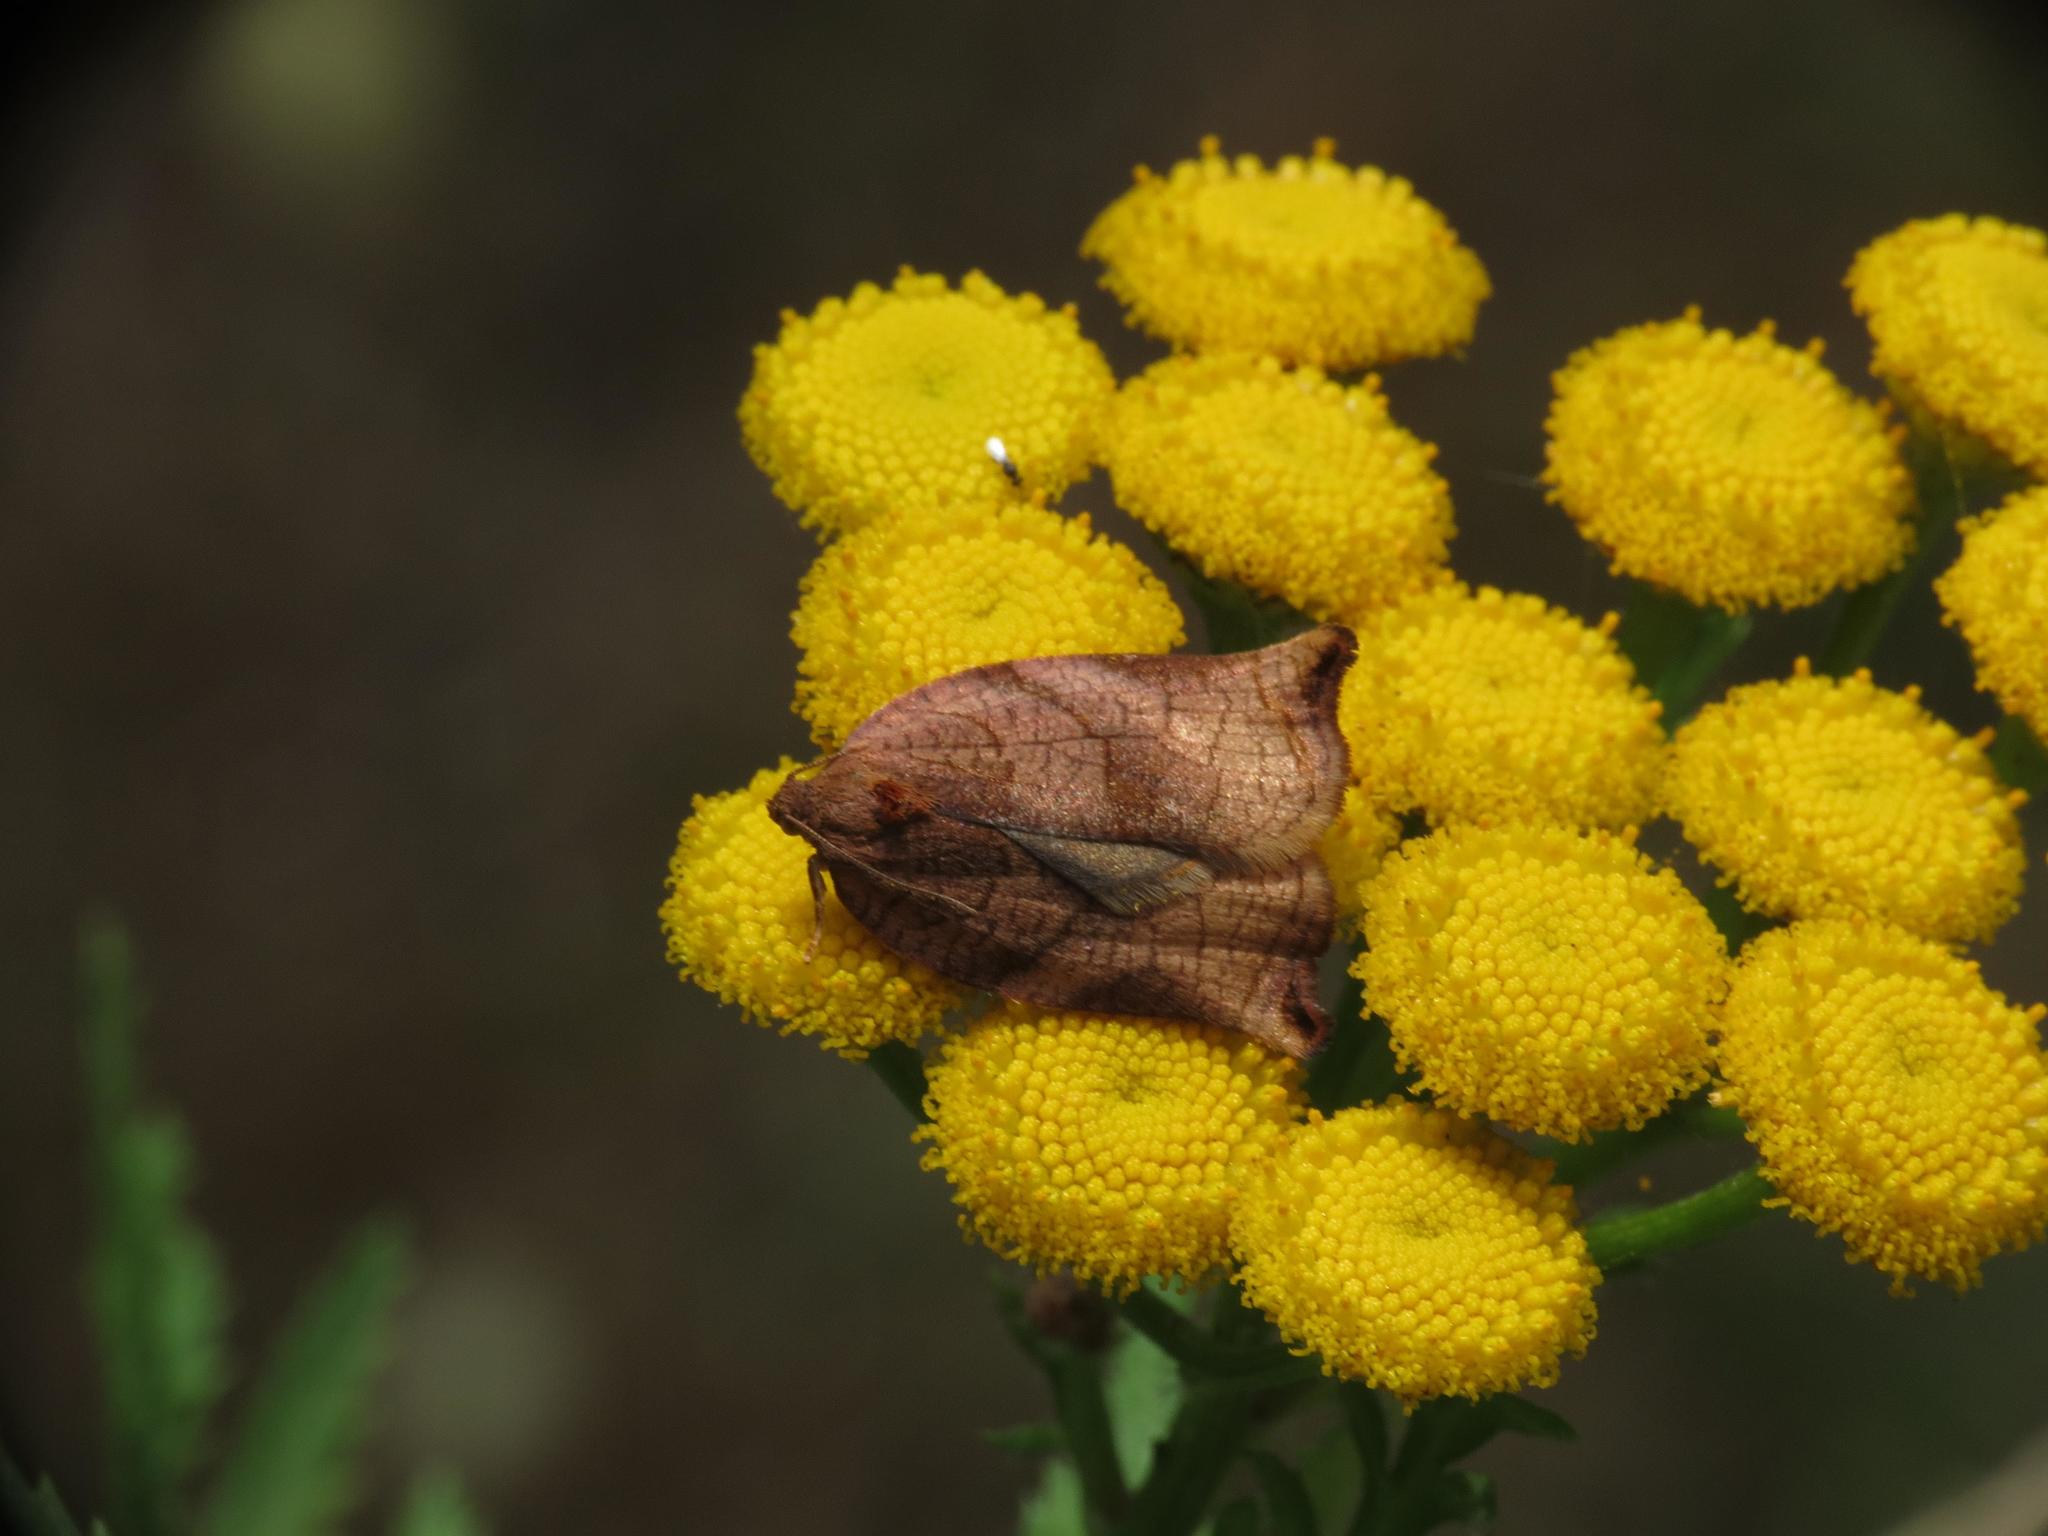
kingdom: Animalia
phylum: Arthropoda
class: Insecta
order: Lepidoptera
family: Tortricidae
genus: Archips
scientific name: Archips podana
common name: Large fruit-tree tortrix
